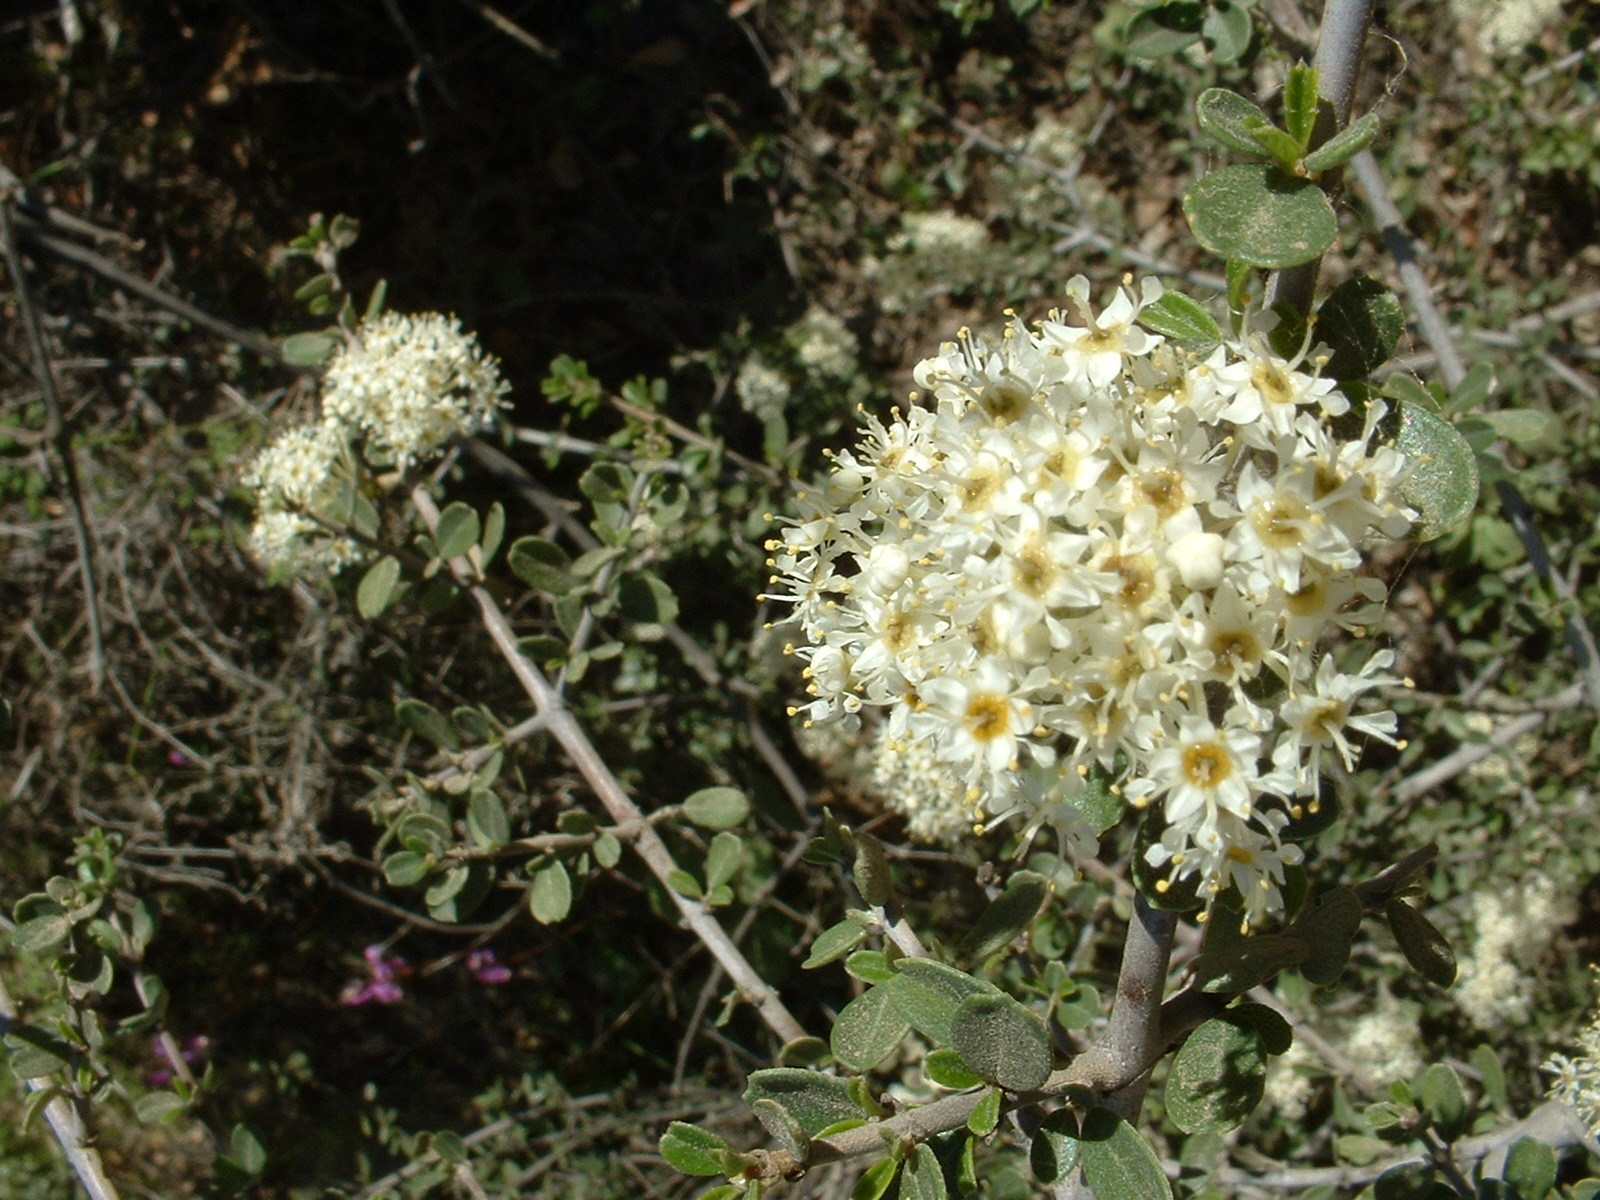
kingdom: Plantae
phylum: Tracheophyta
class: Magnoliopsida
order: Rosales
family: Rhamnaceae
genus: Ceanothus
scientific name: Ceanothus cuneatus
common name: Cuneate ceanothus
